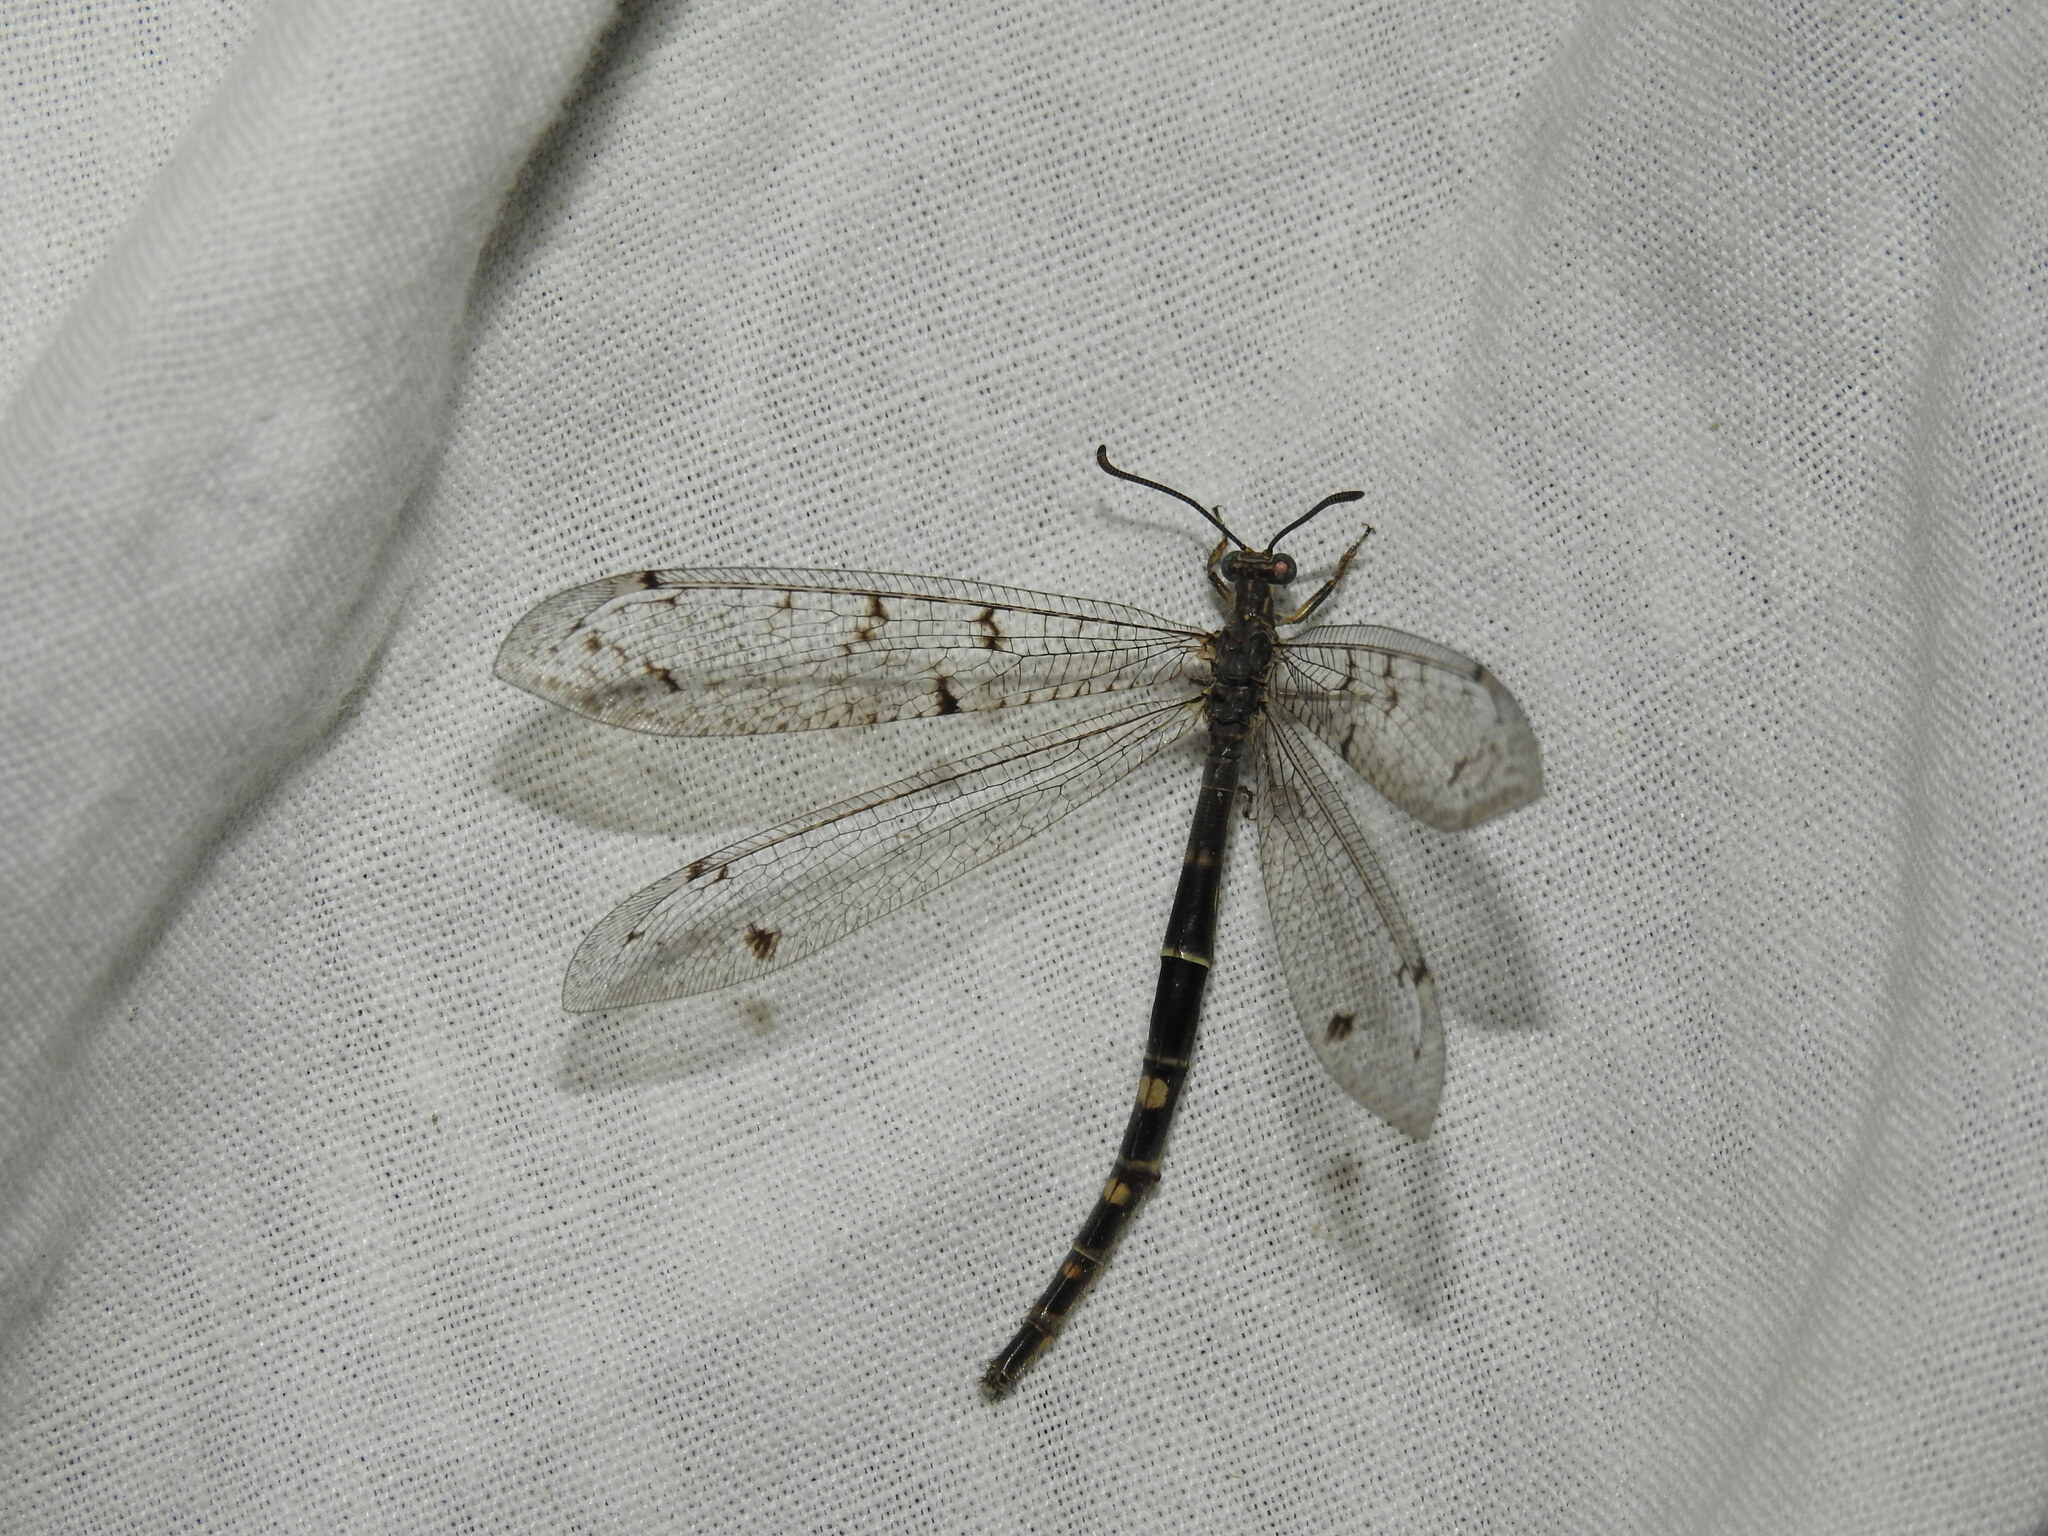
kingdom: Animalia
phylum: Arthropoda
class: Insecta
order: Neuroptera
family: Myrmeleontidae
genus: Distoleon
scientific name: Distoleon tetragrammicus
